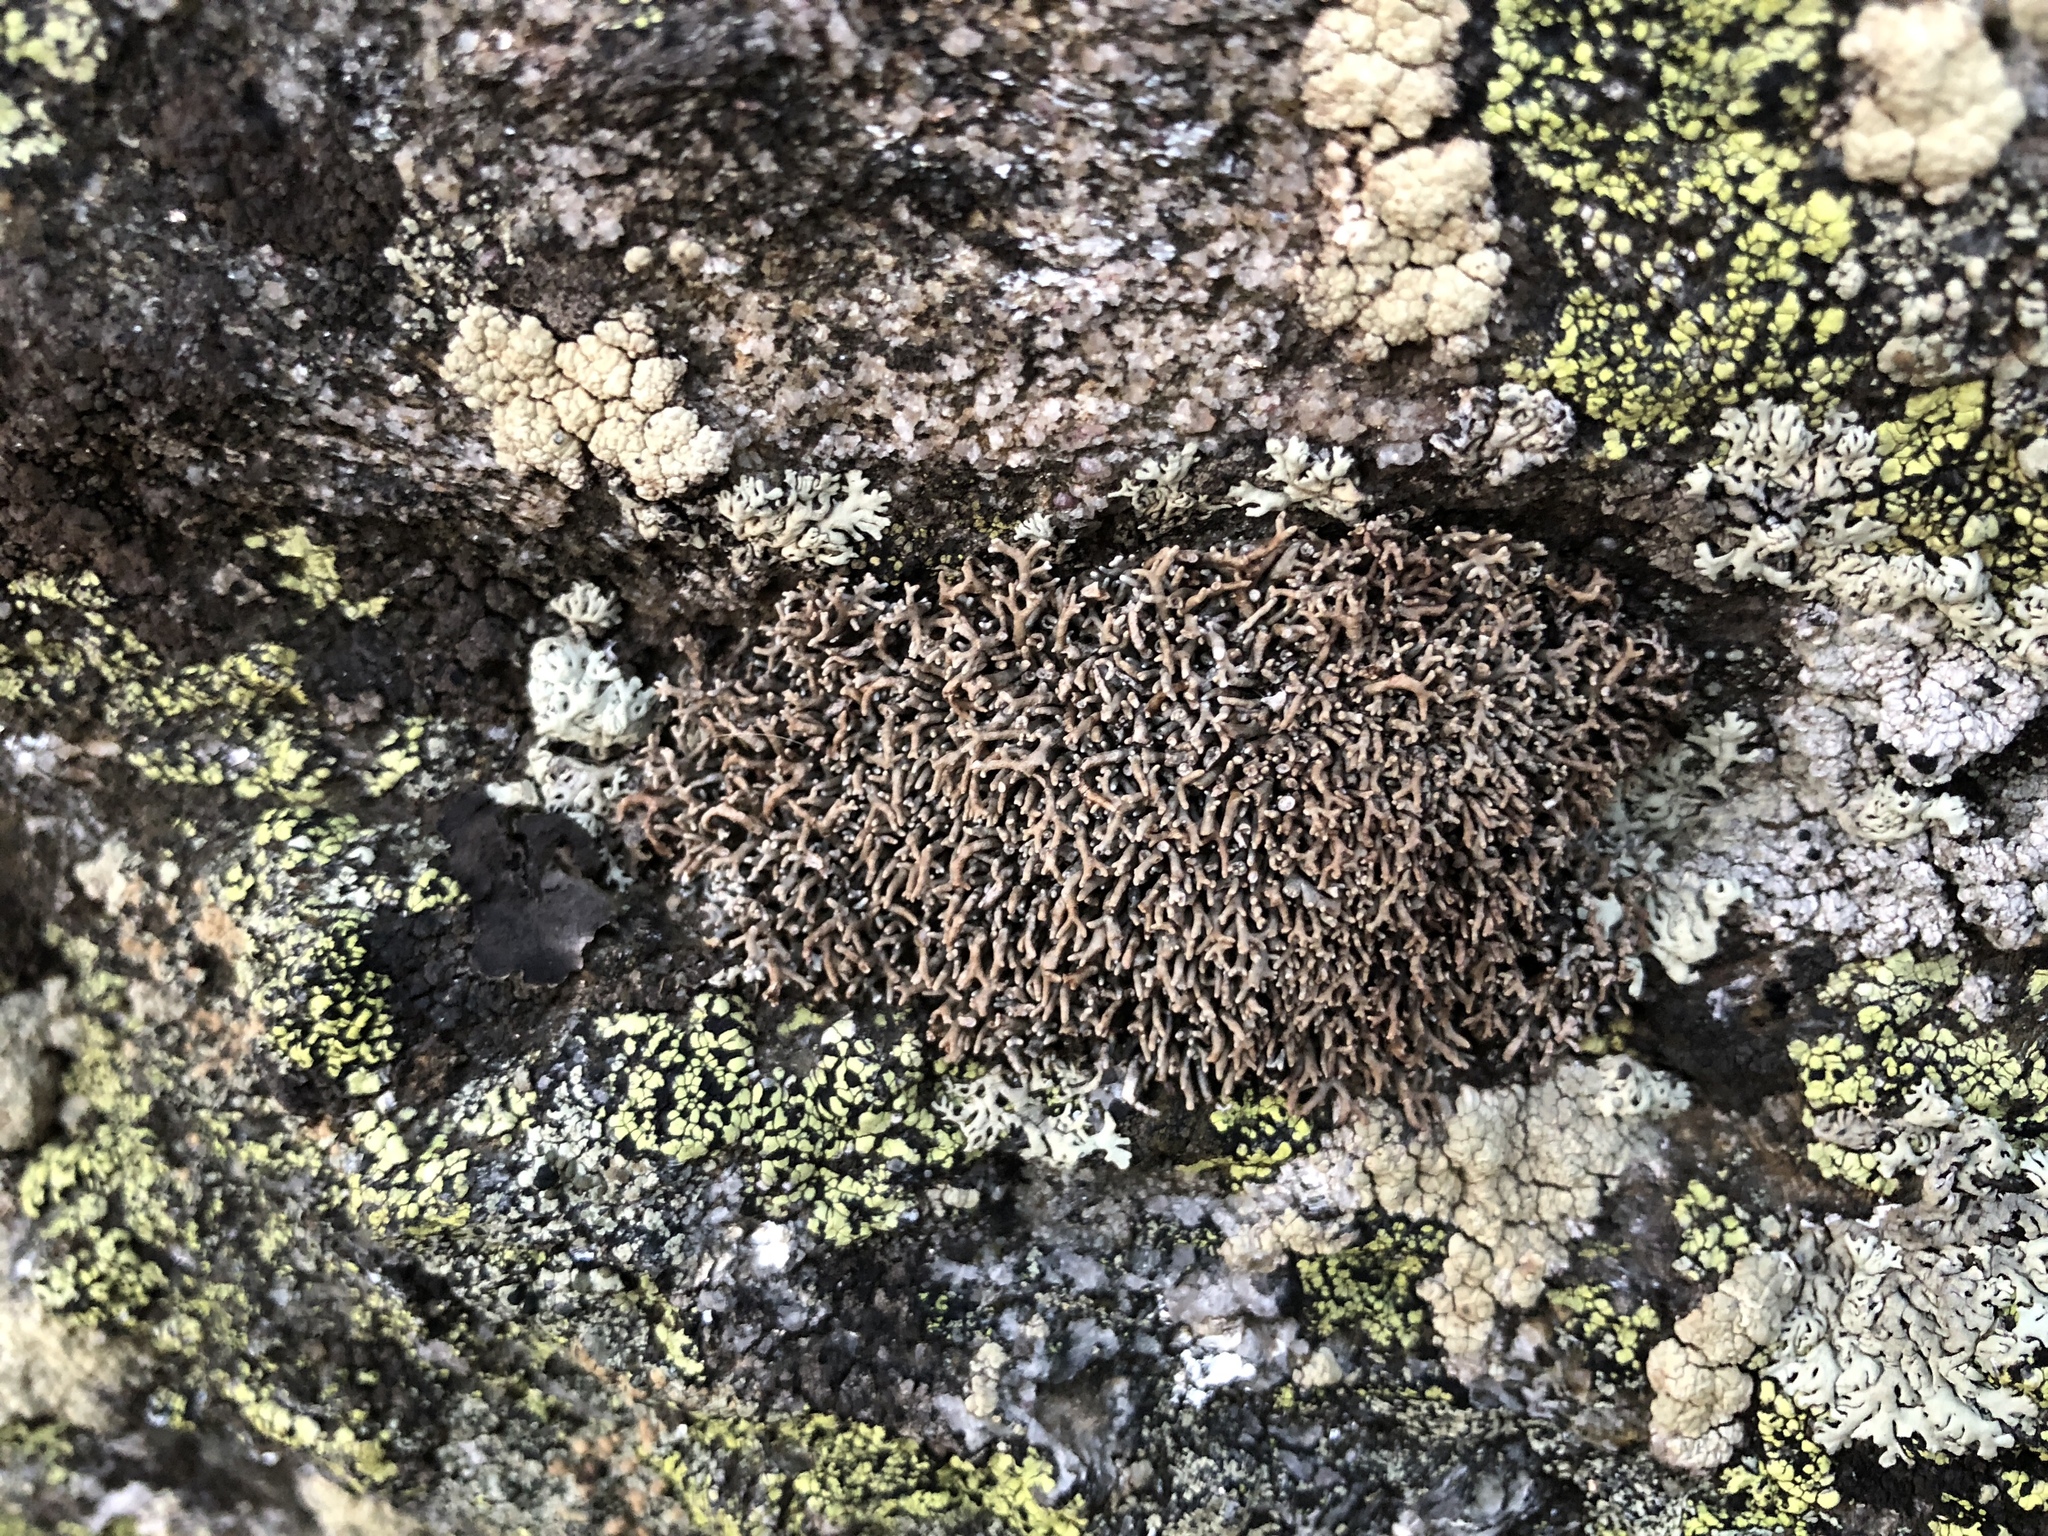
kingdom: Fungi
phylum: Ascomycota
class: Lecanoromycetes
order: Lecanorales
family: Sphaerophoraceae
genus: Sphaerophorus
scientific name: Sphaerophorus fragilis
